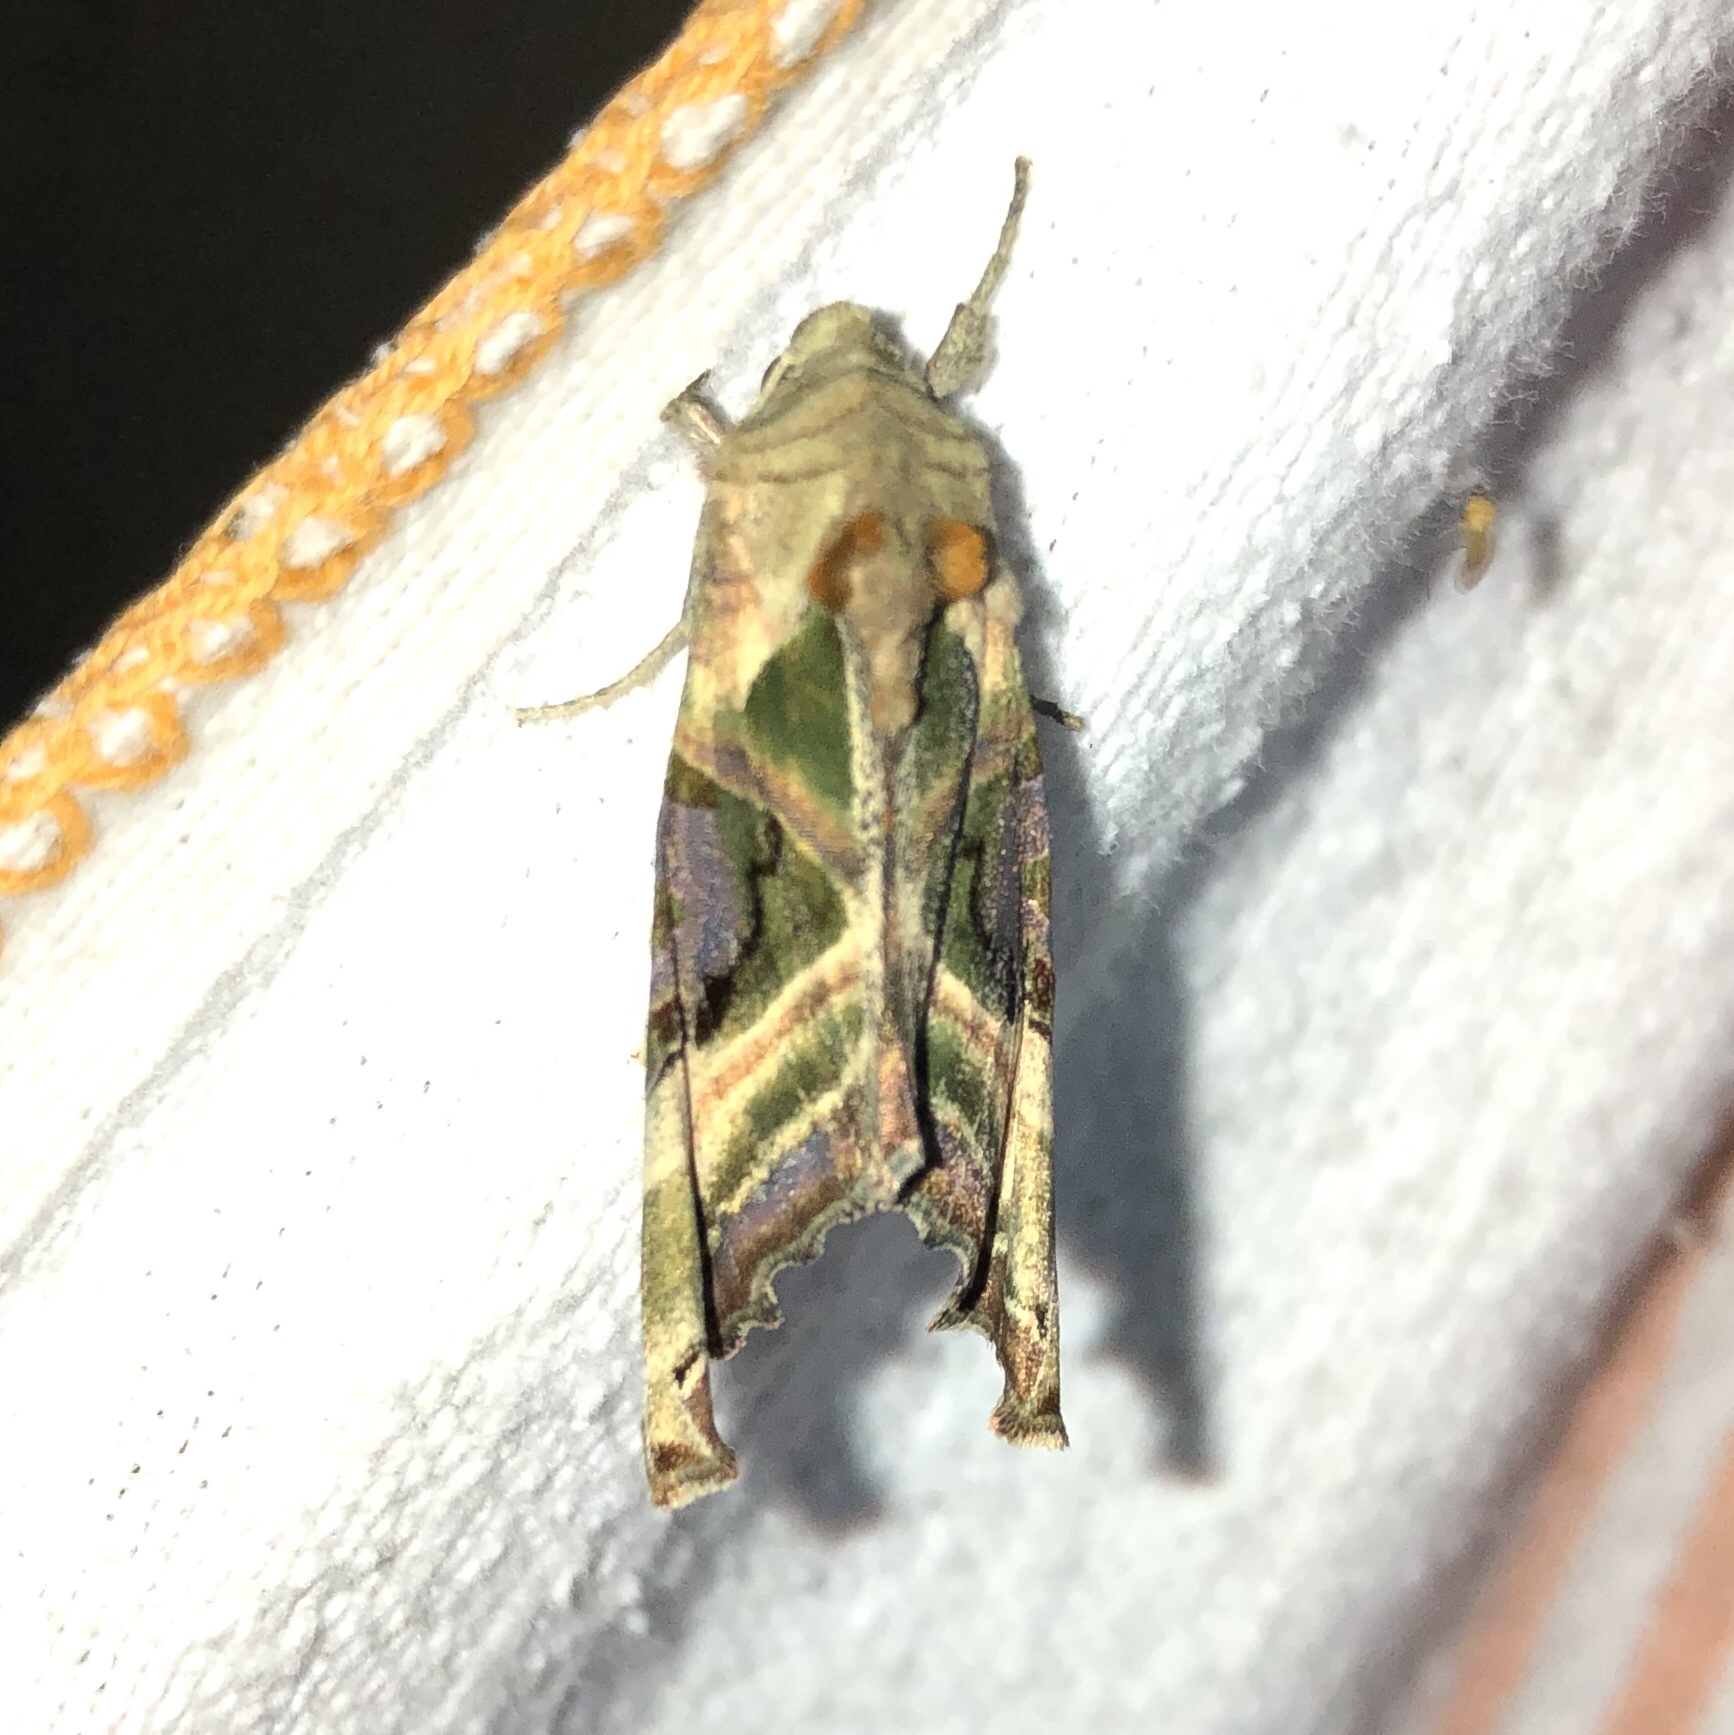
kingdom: Animalia
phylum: Arthropoda
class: Insecta
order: Lepidoptera
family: Noctuidae
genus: Phlogophora
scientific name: Phlogophora iris
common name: Olive angle shades
